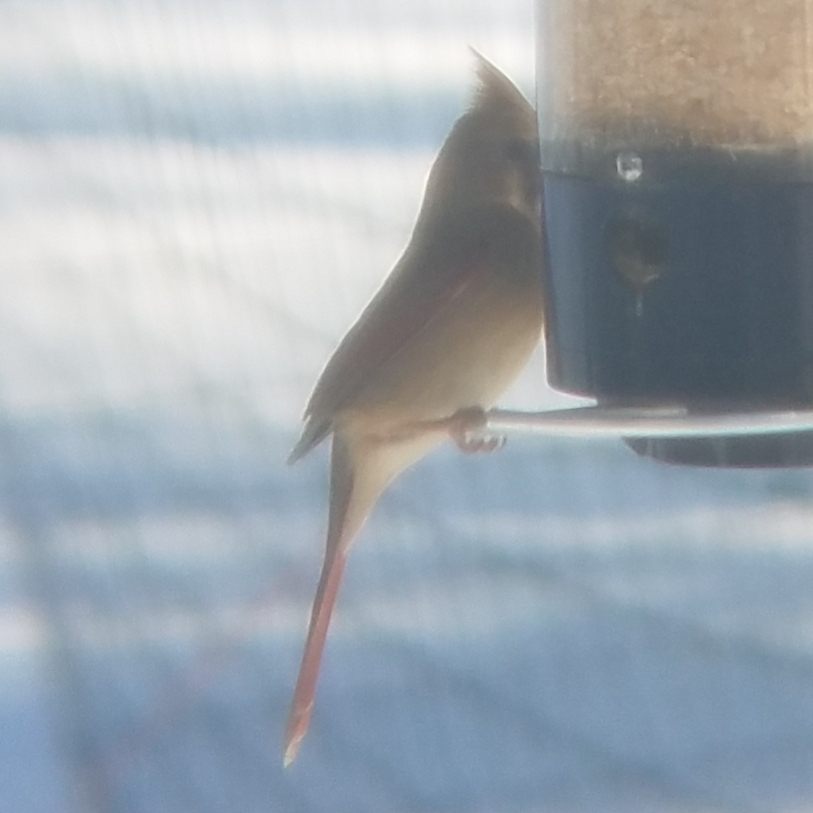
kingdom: Animalia
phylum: Chordata
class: Aves
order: Passeriformes
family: Cardinalidae
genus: Cardinalis
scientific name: Cardinalis cardinalis
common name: Northern cardinal
